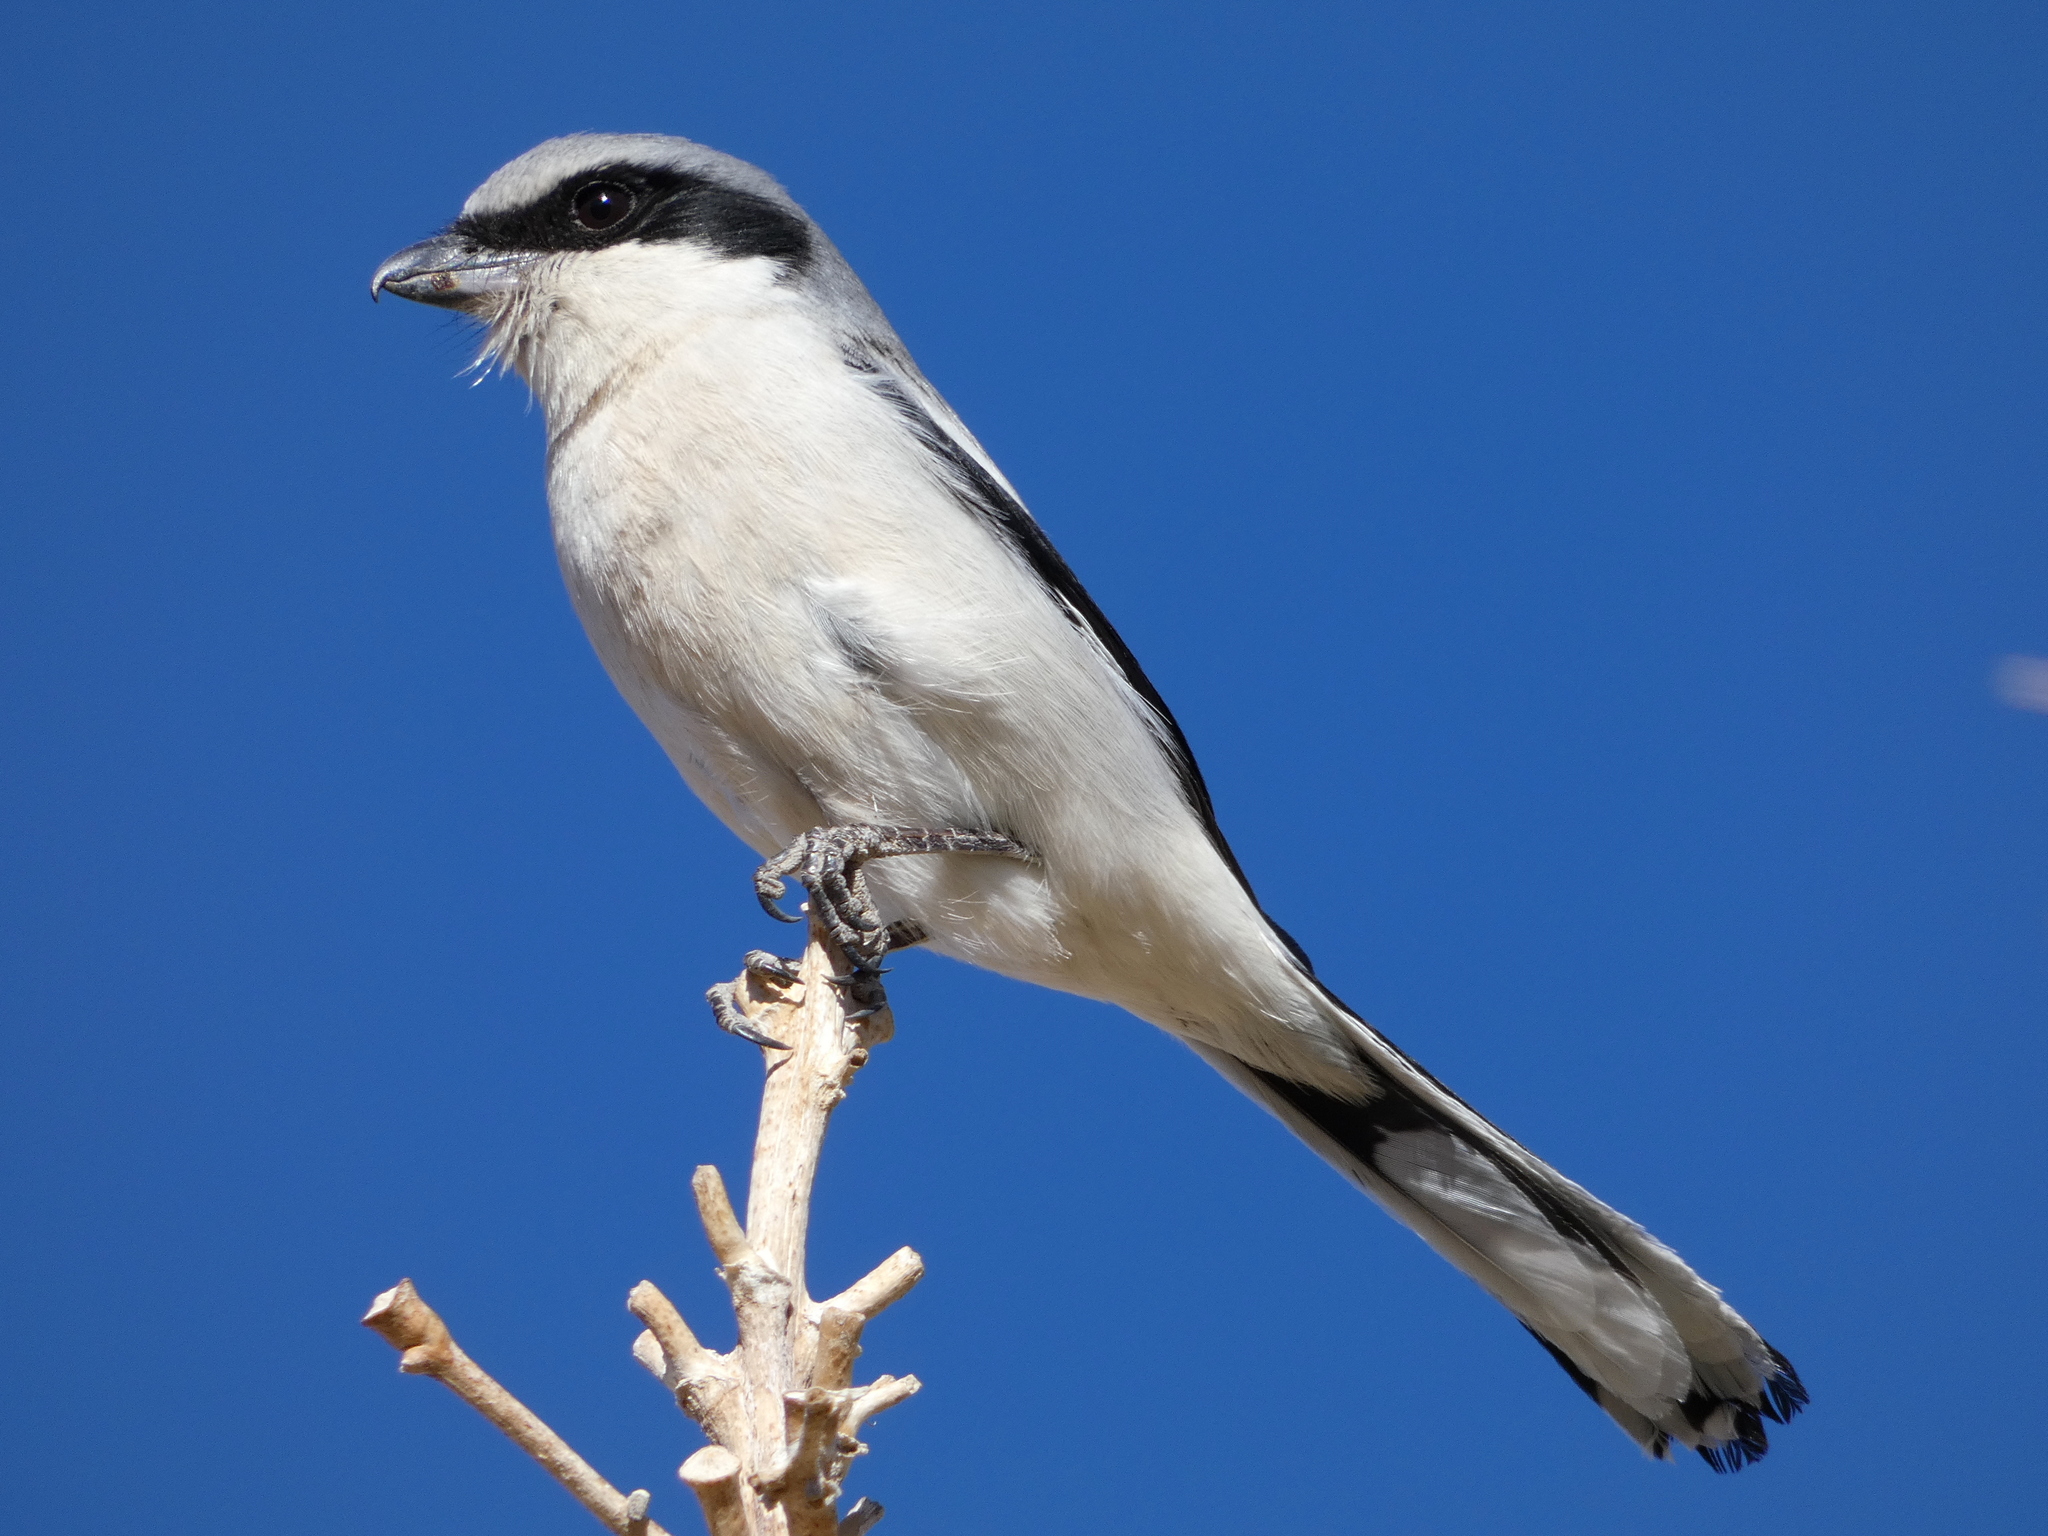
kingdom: Animalia
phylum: Chordata
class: Aves
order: Passeriformes
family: Laniidae
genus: Lanius
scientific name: Lanius ludovicianus
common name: Loggerhead shrike
